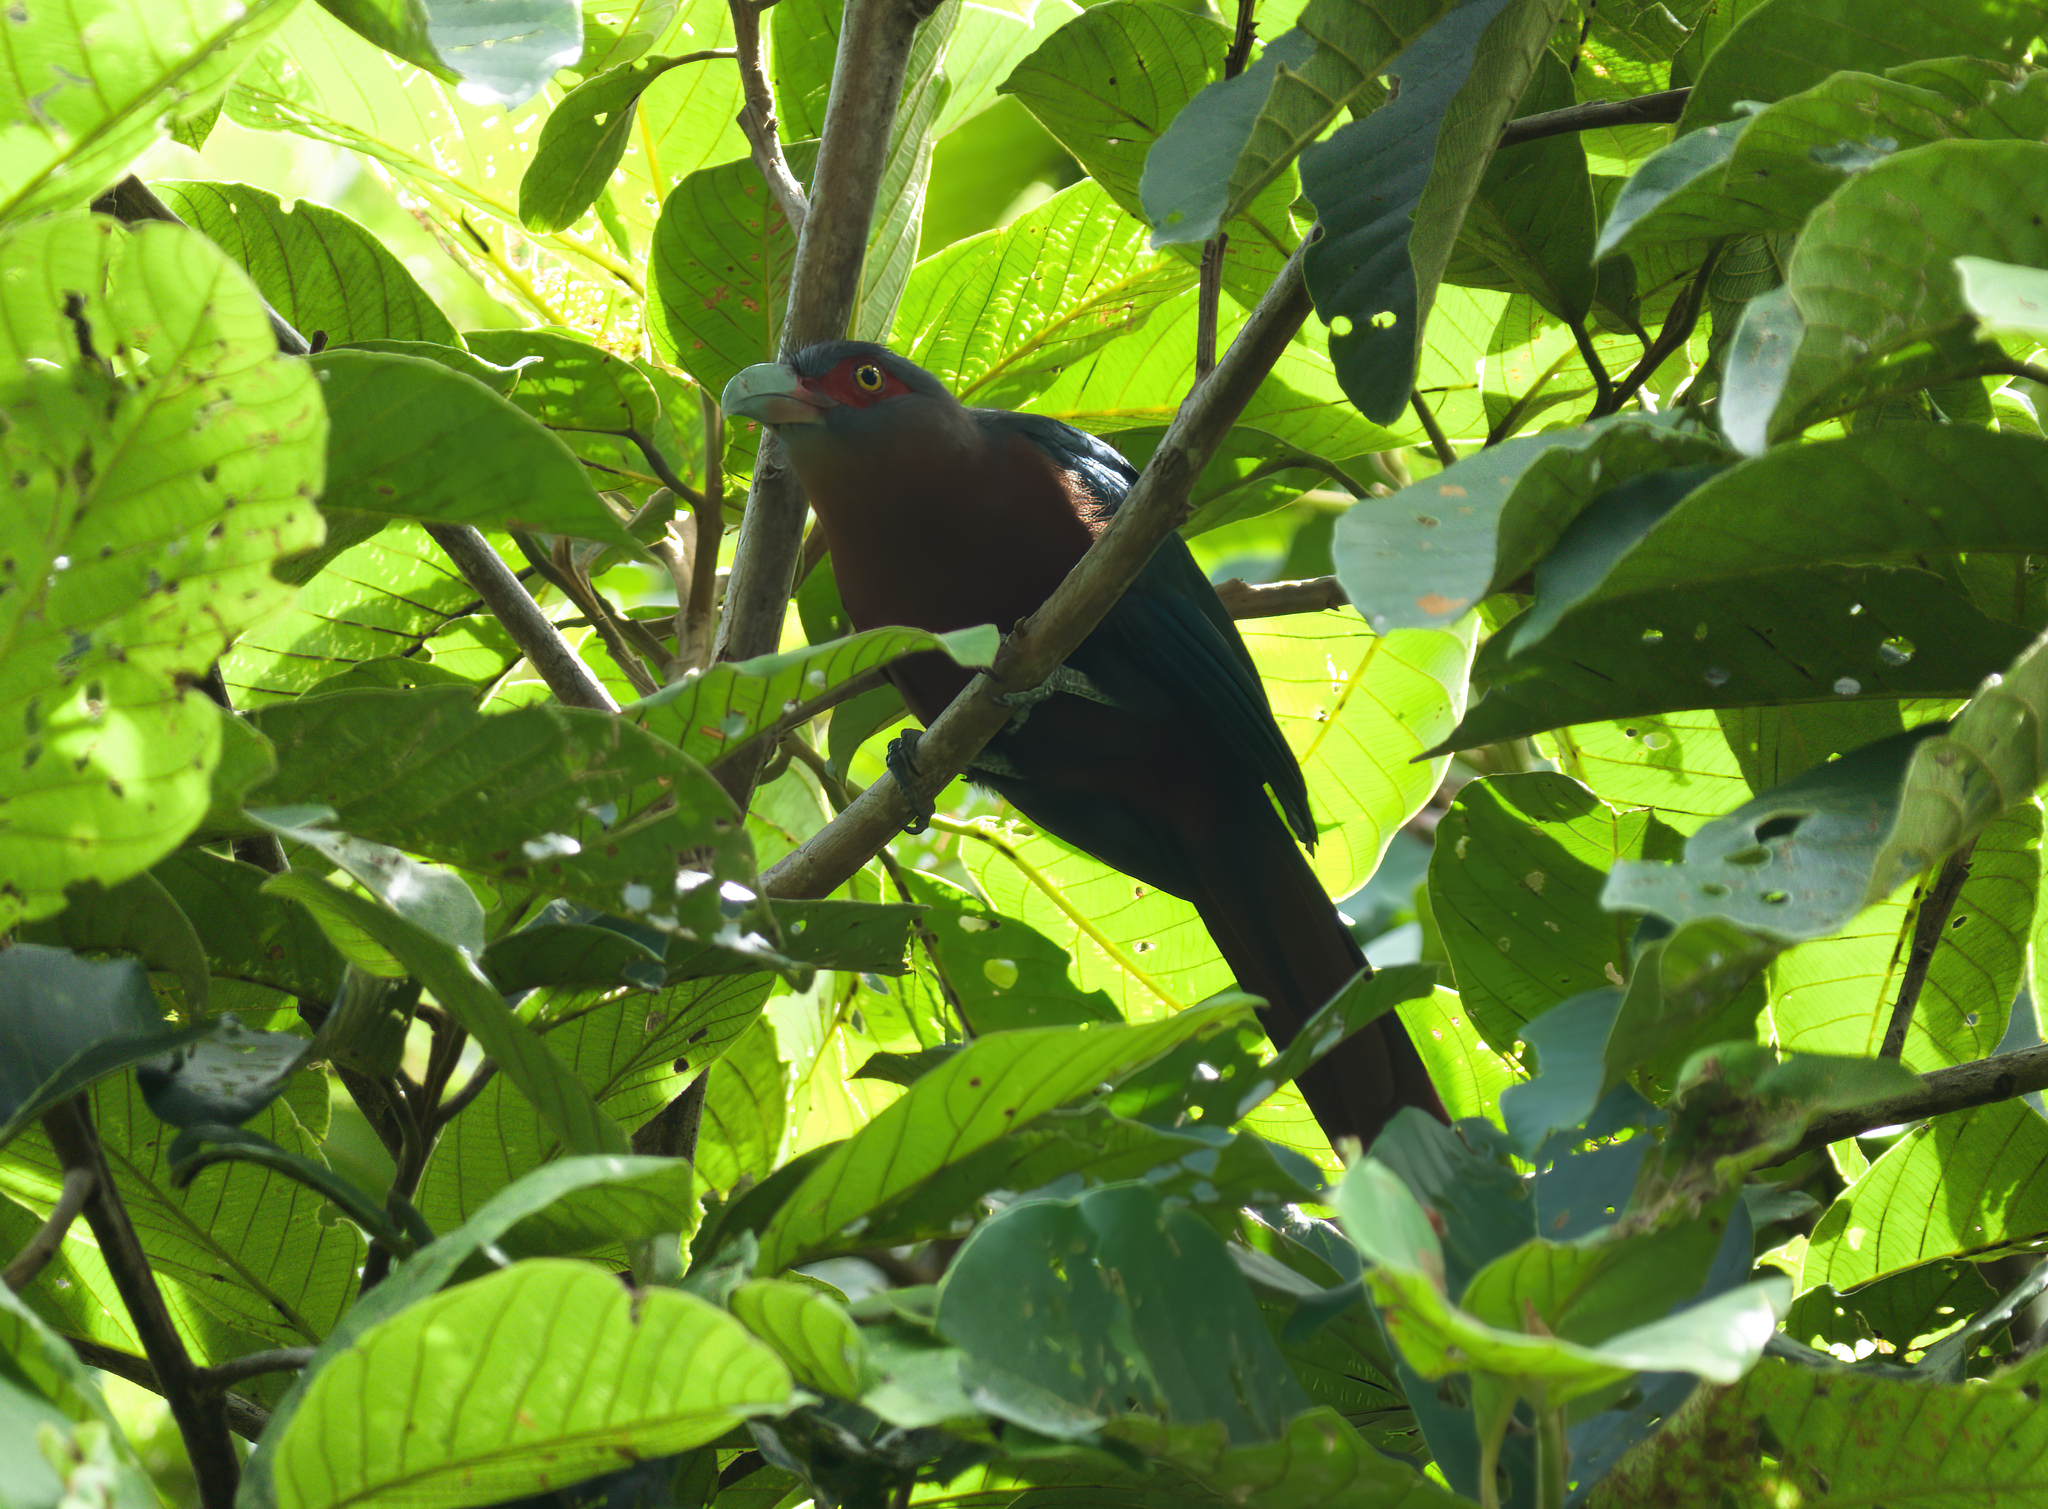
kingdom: Animalia
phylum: Chordata
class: Aves
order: Cuculiformes
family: Cuculidae
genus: Zanclostomus
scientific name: Zanclostomus curvirostris
